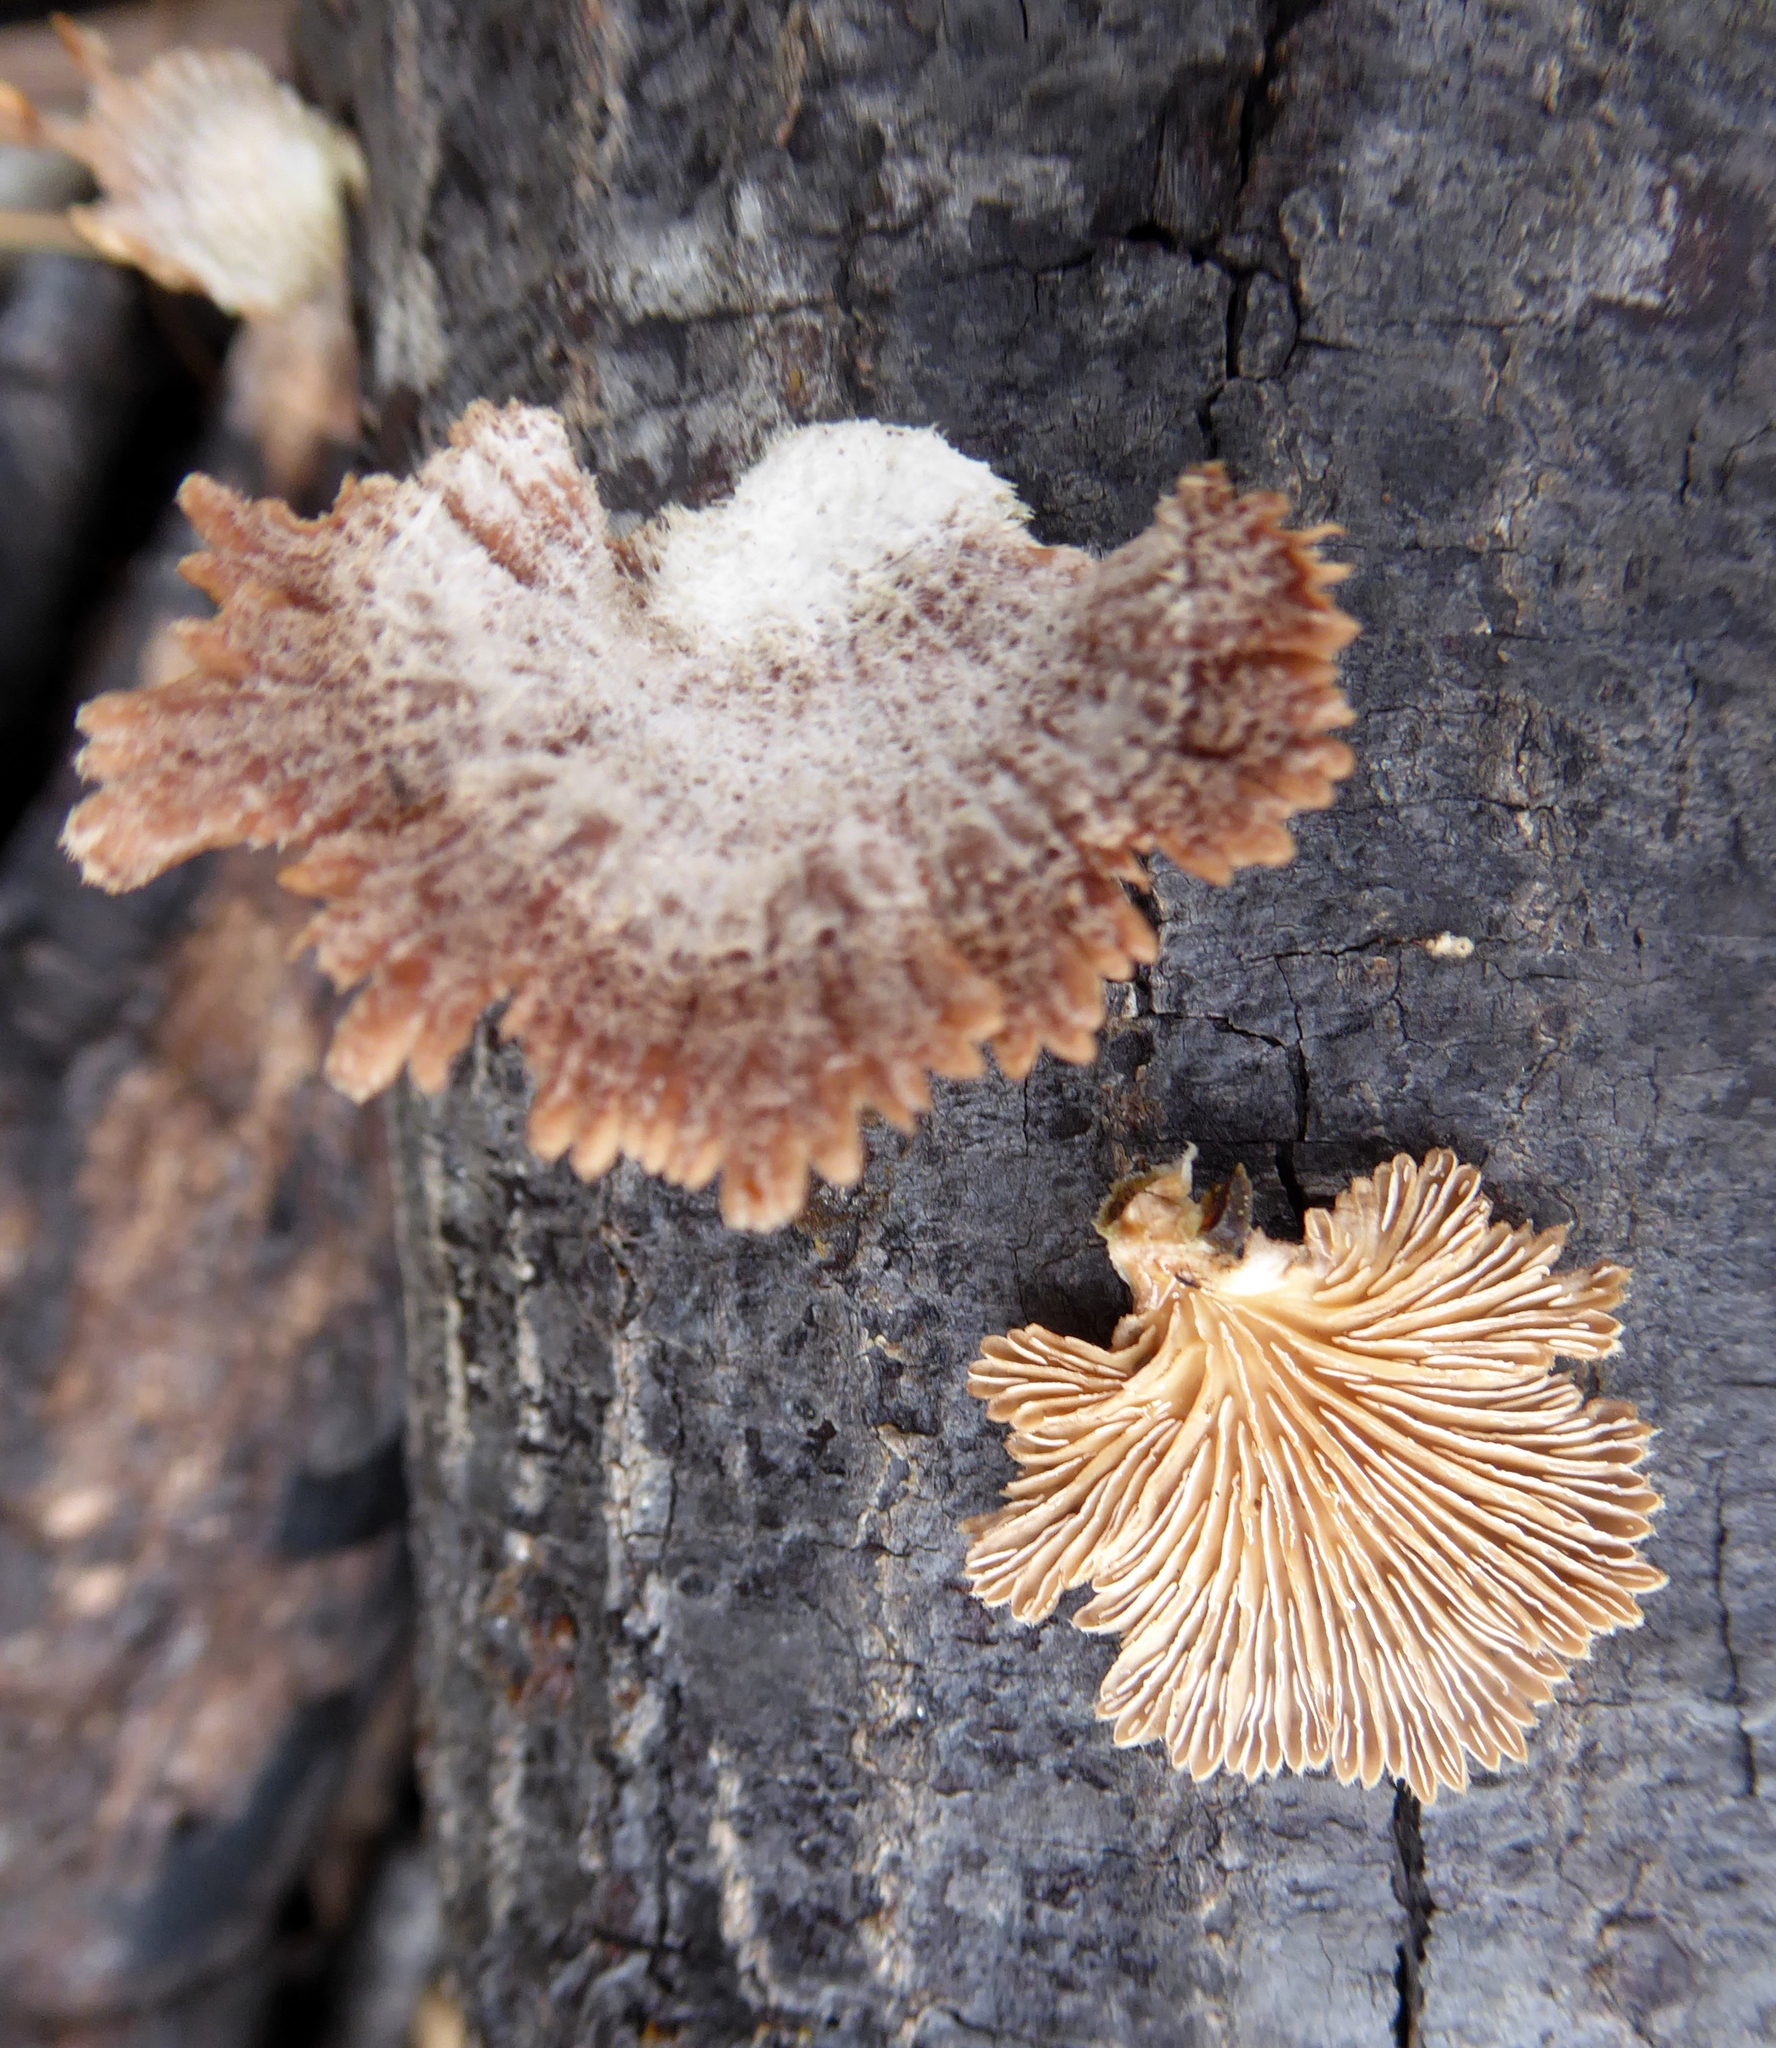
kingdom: Fungi
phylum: Basidiomycota
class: Agaricomycetes
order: Agaricales
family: Schizophyllaceae
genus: Schizophyllum
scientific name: Schizophyllum commune
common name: Common porecrust
